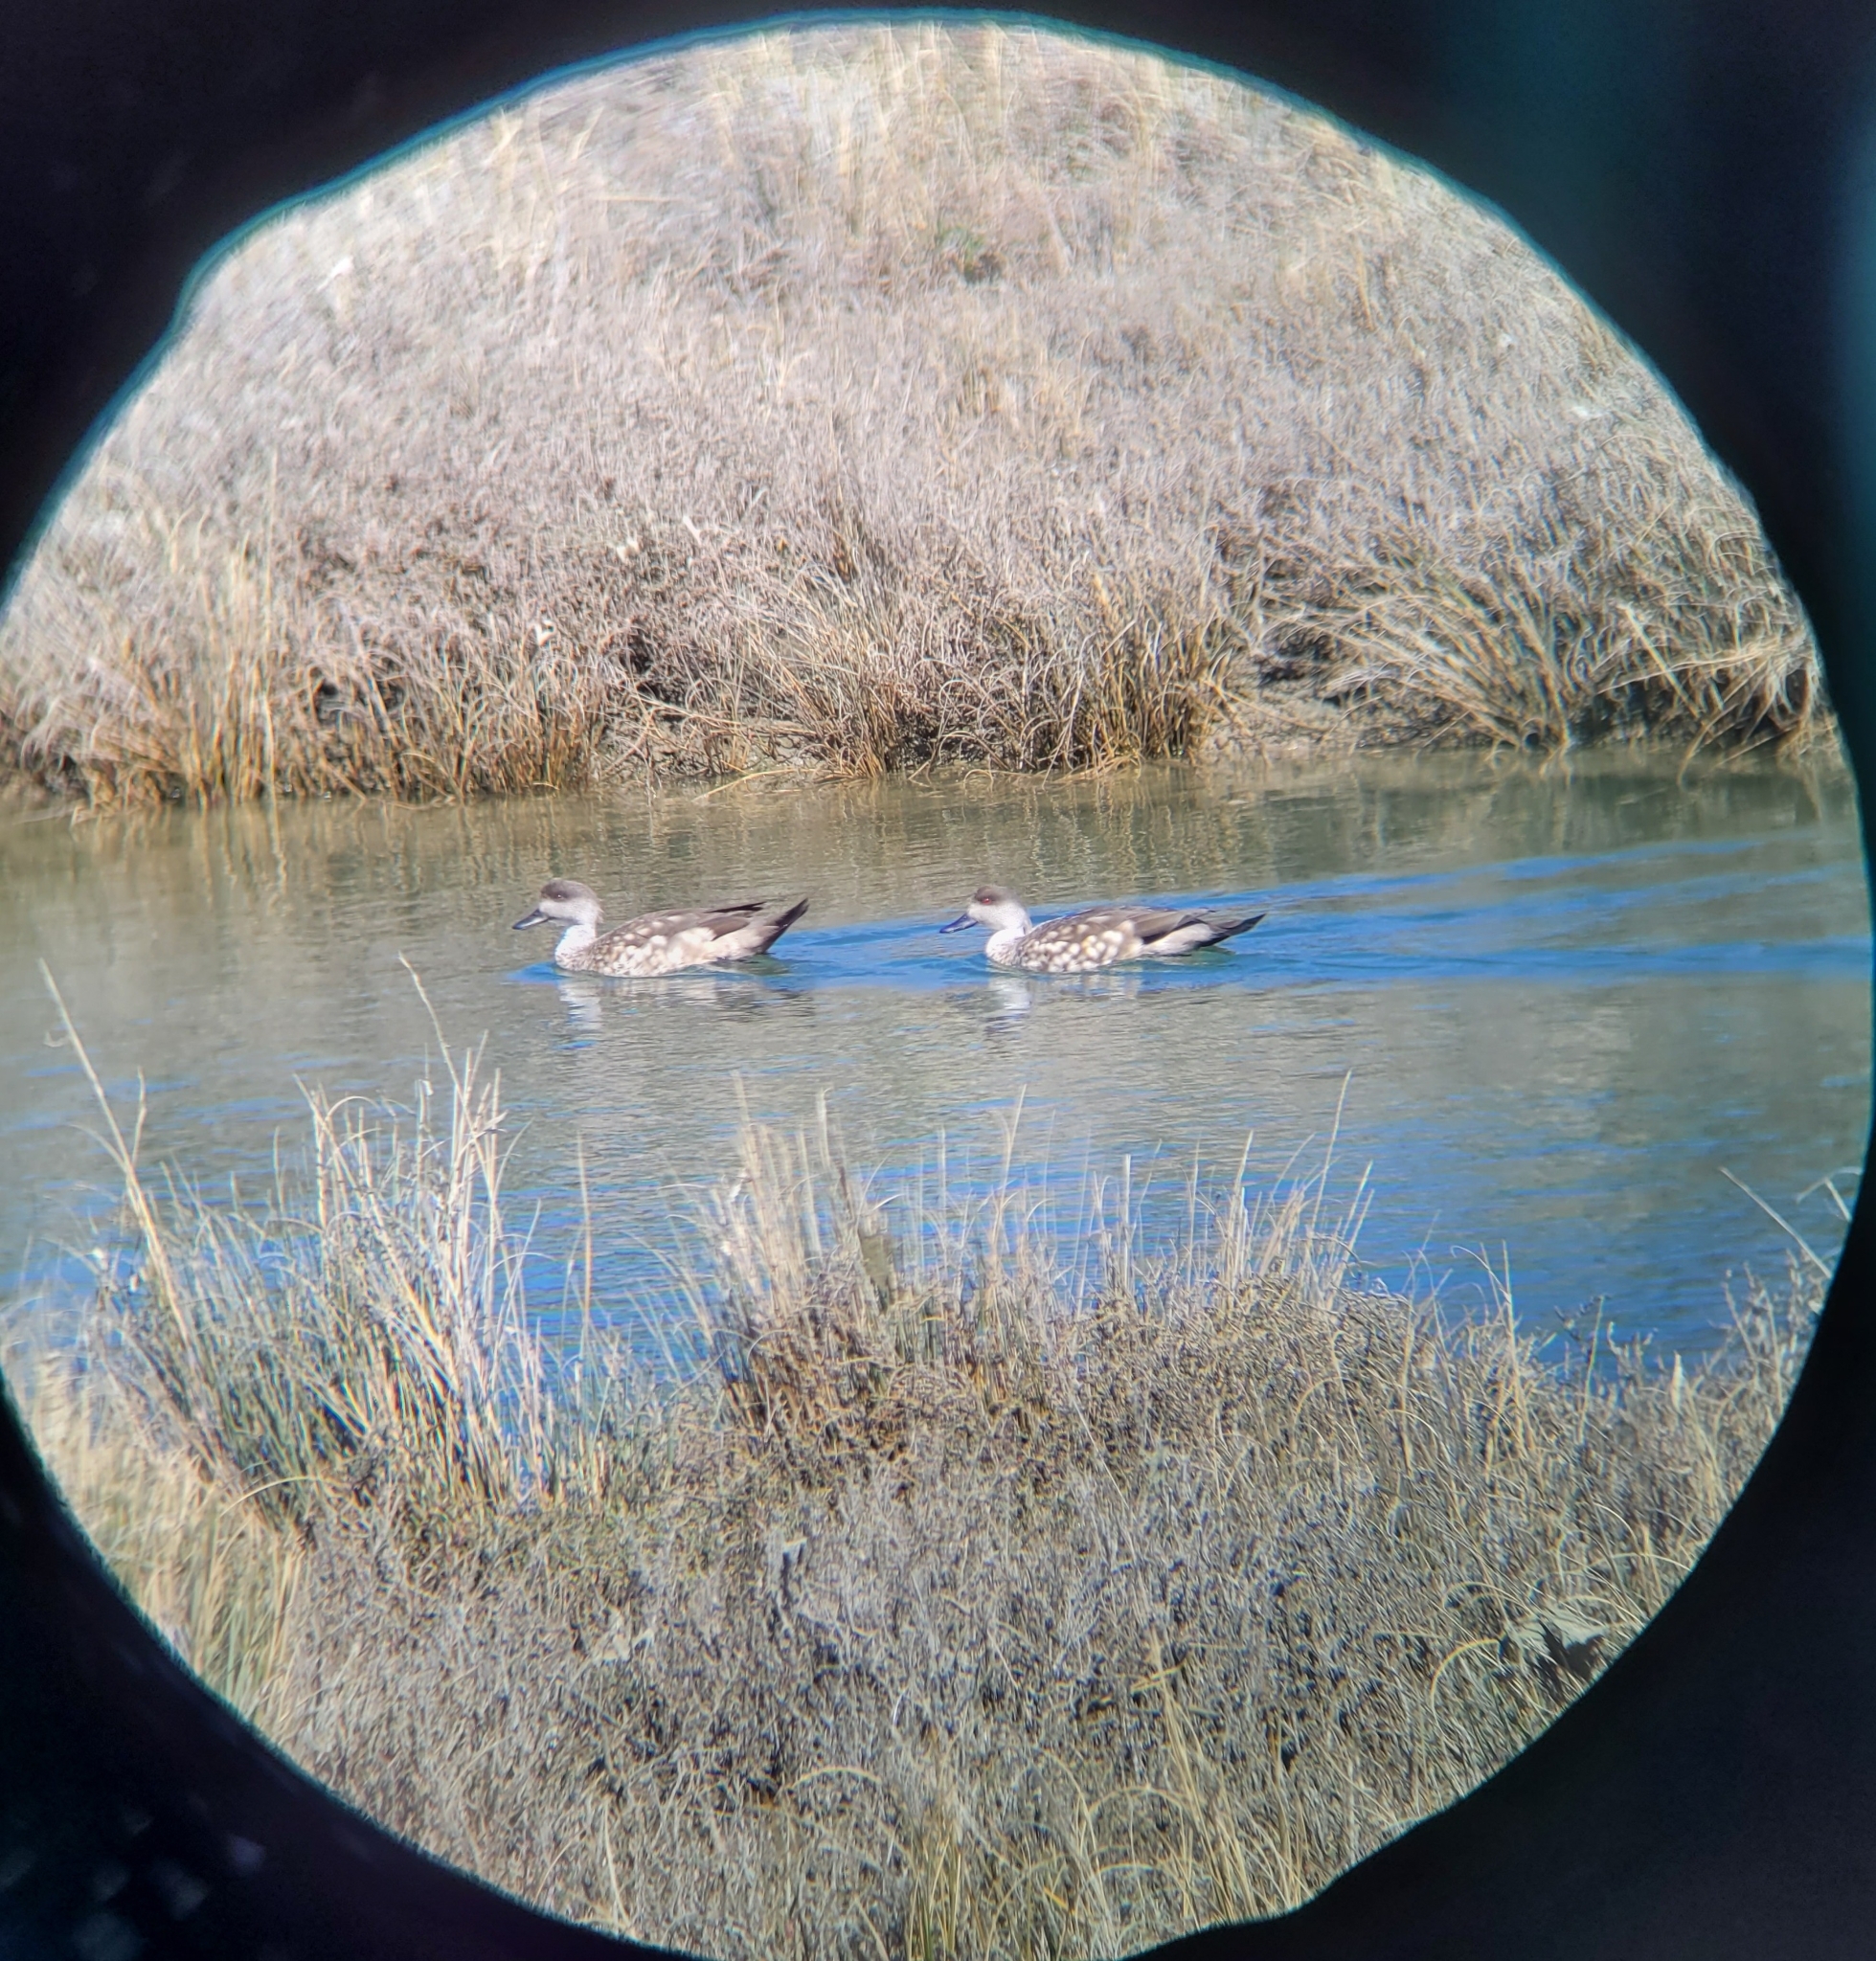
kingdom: Animalia
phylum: Chordata
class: Aves
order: Anseriformes
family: Anatidae
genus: Lophonetta
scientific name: Lophonetta specularioides
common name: Crested duck
